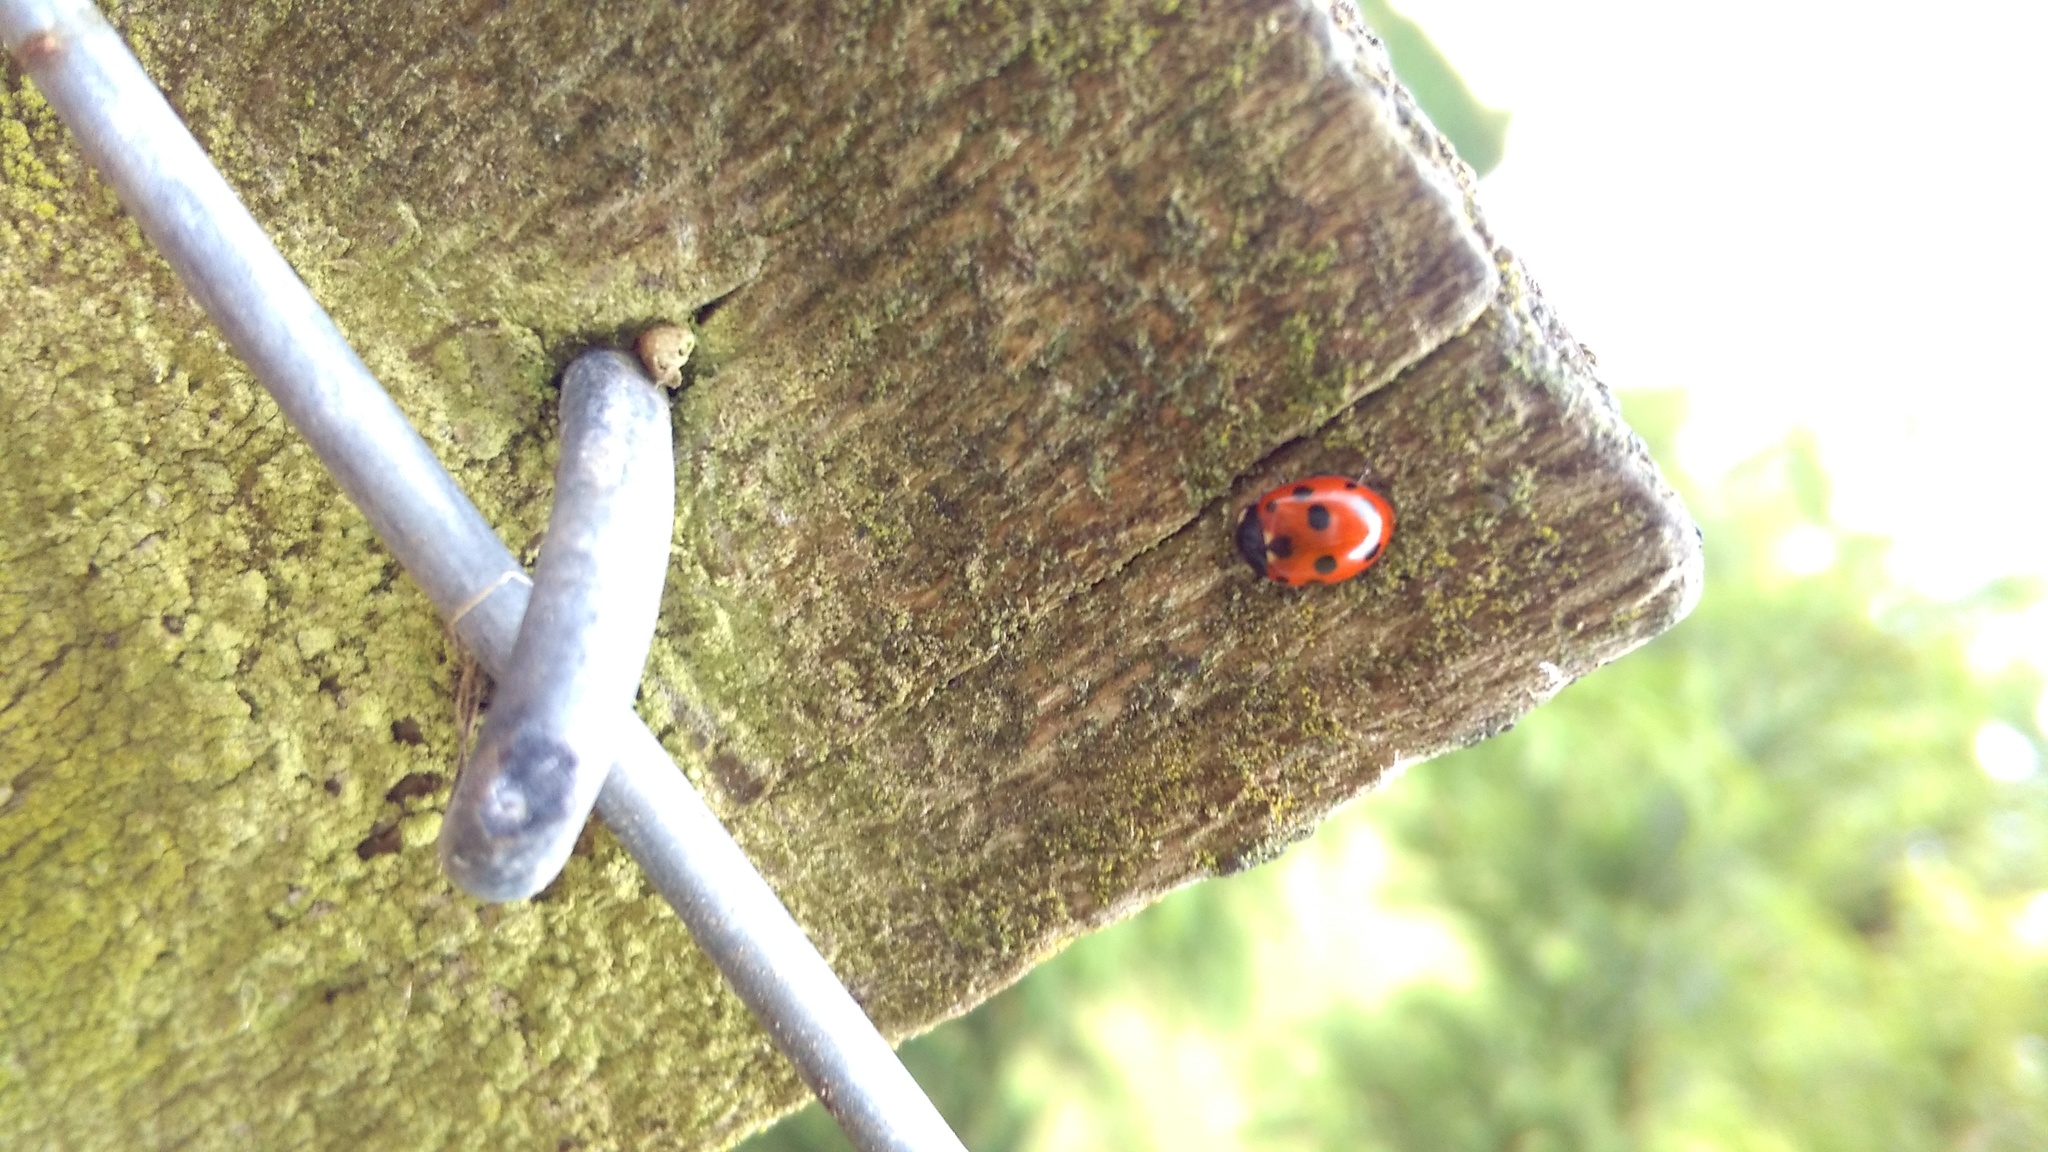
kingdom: Animalia
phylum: Arthropoda
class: Insecta
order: Coleoptera
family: Coccinellidae
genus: Coccinella
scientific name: Coccinella undecimpunctata
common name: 11-spot ladybird
